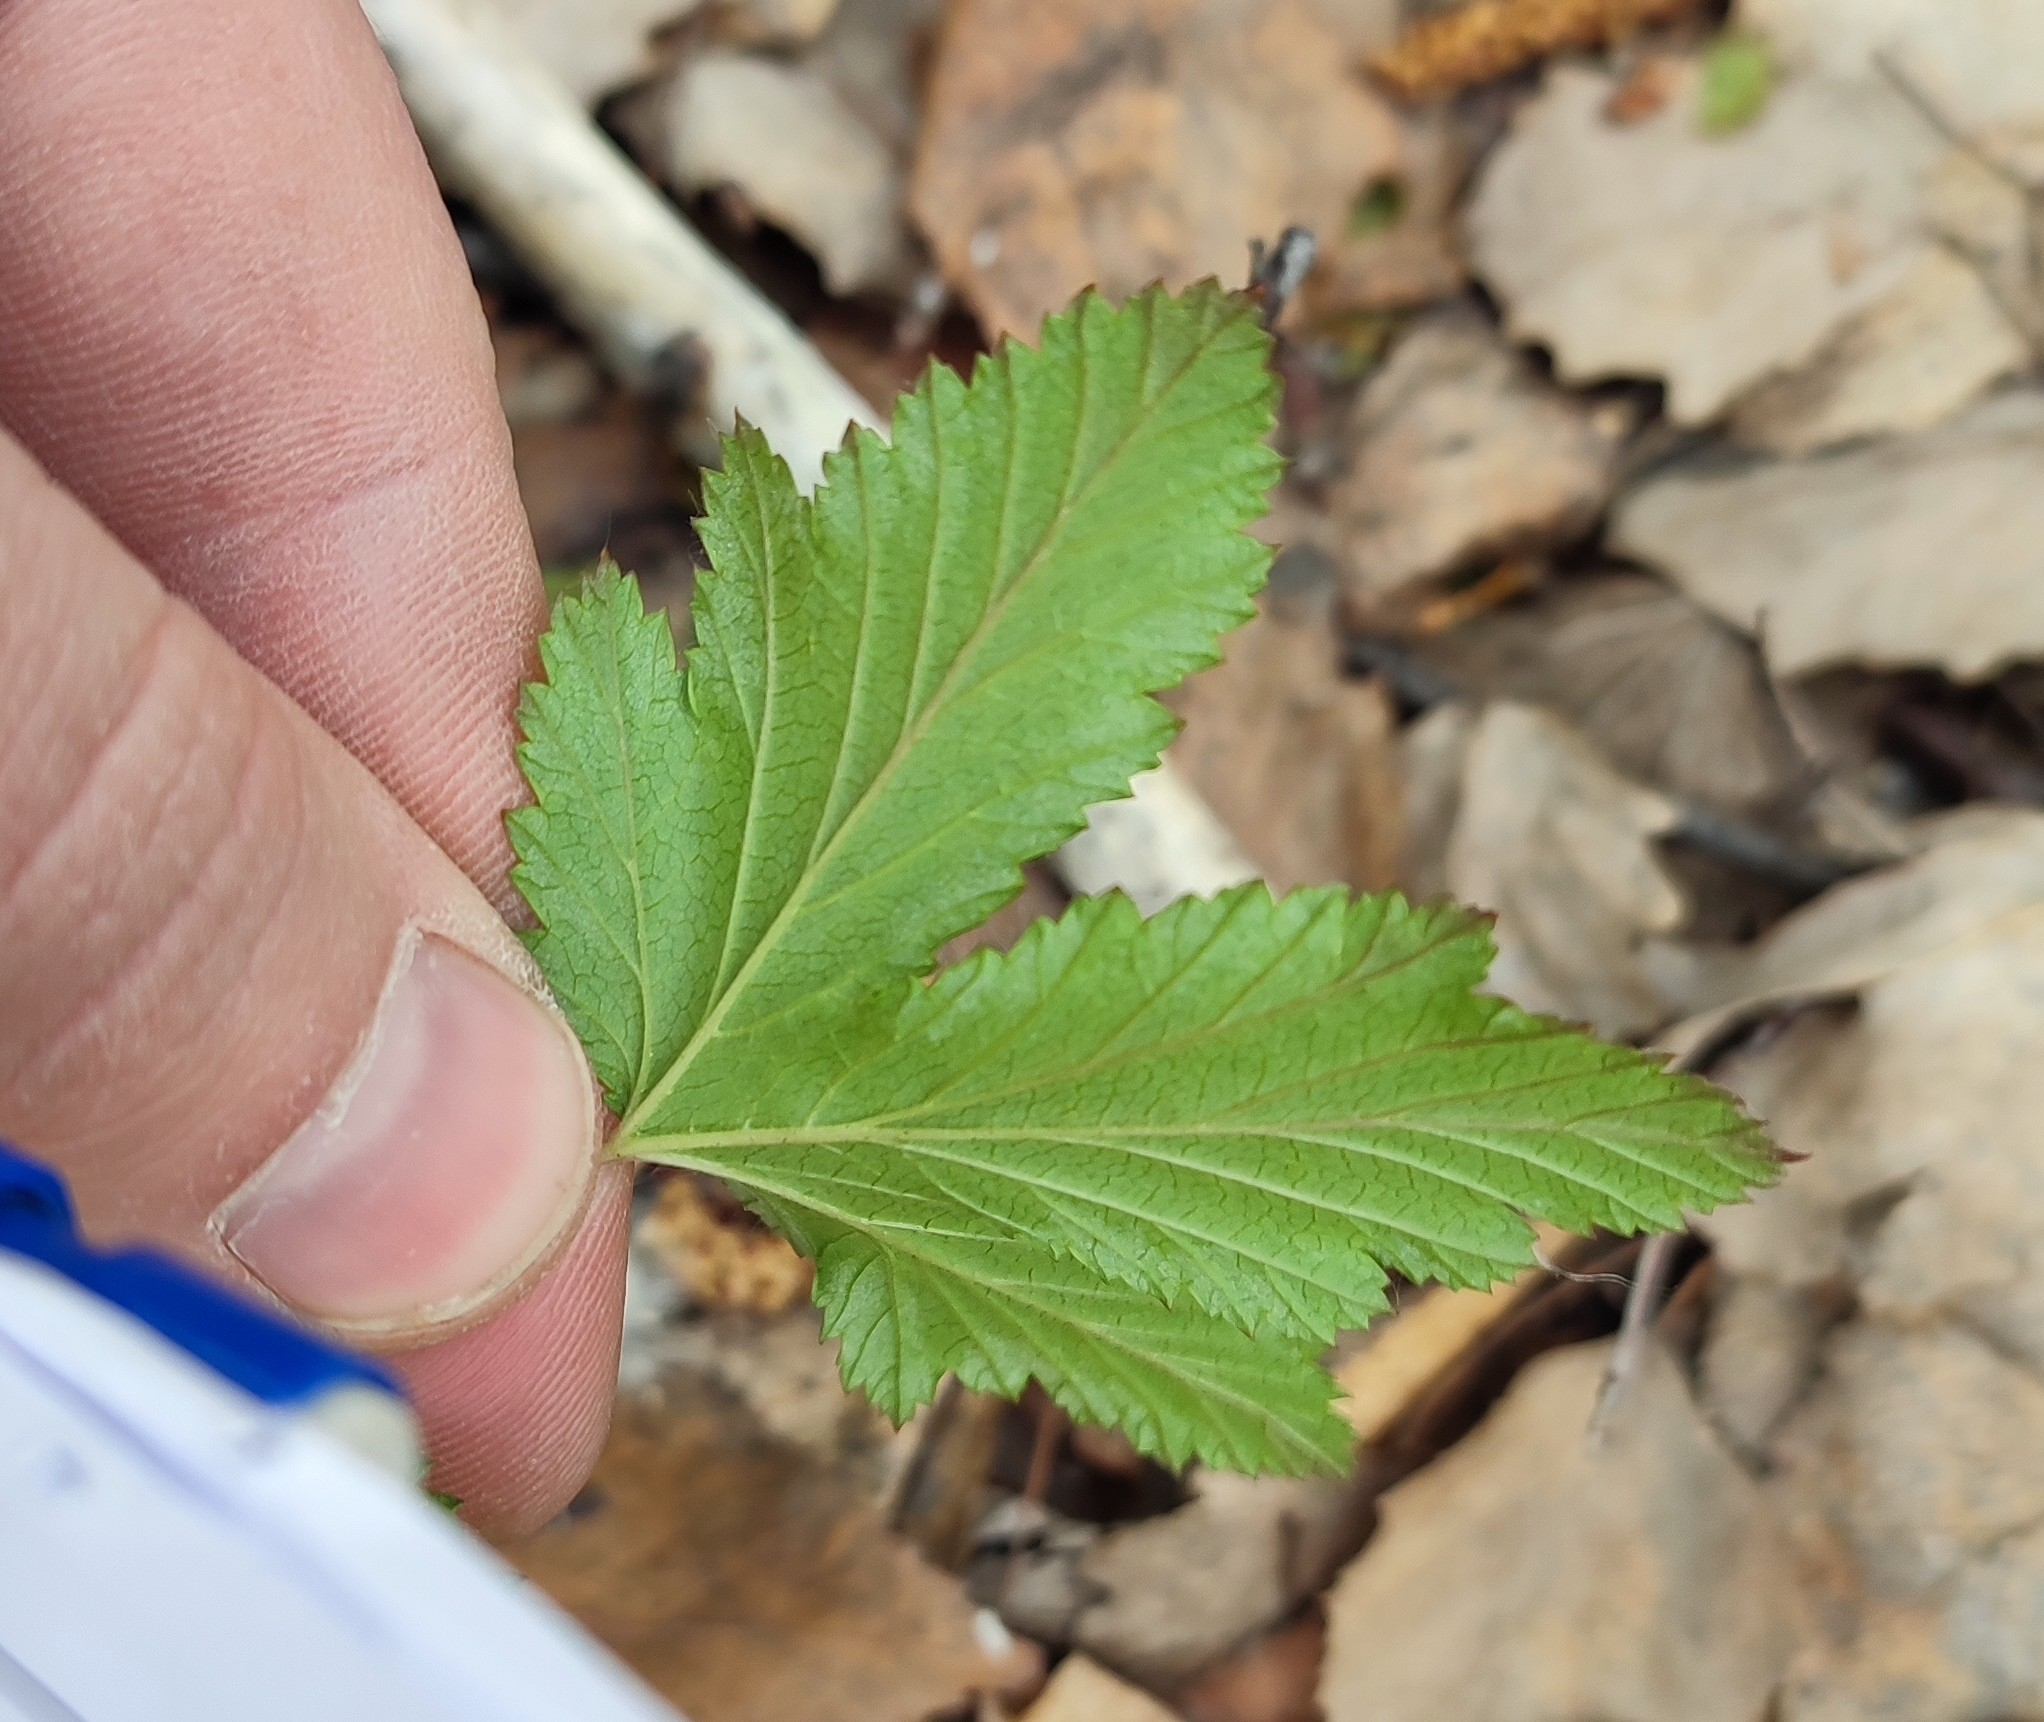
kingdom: Plantae
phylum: Tracheophyta
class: Magnoliopsida
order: Rosales
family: Rosaceae
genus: Filipendula
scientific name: Filipendula ulmaria
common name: Meadowsweet
